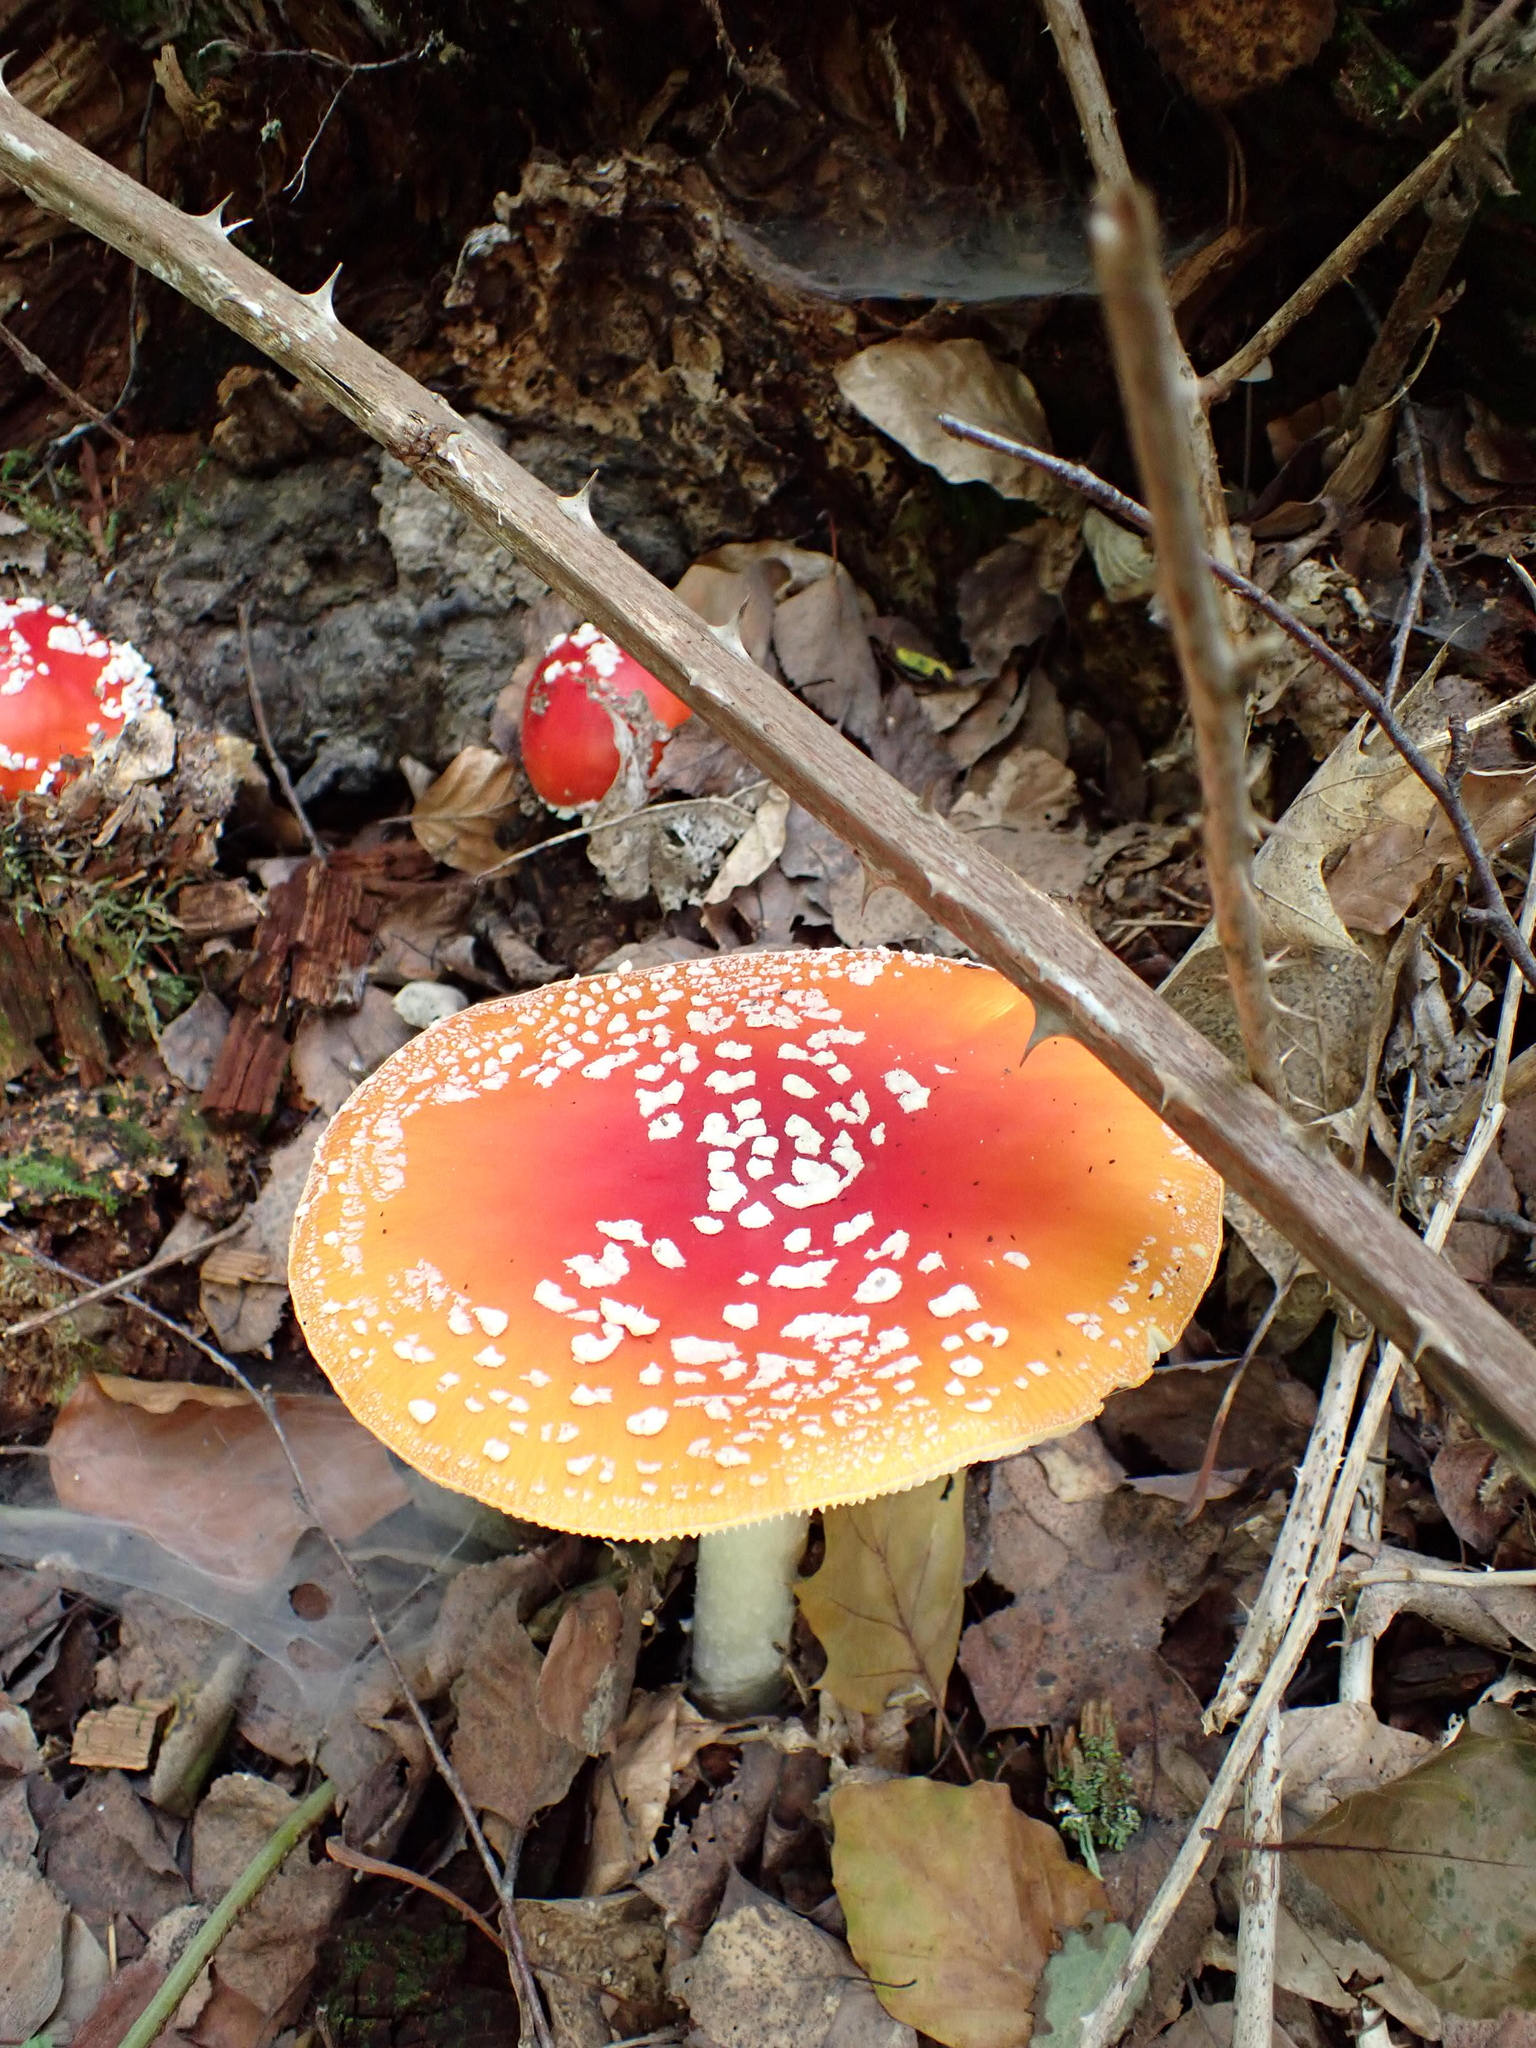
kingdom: Fungi
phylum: Basidiomycota
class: Agaricomycetes
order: Agaricales
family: Amanitaceae
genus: Amanita
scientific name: Amanita muscaria
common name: Fly agaric
